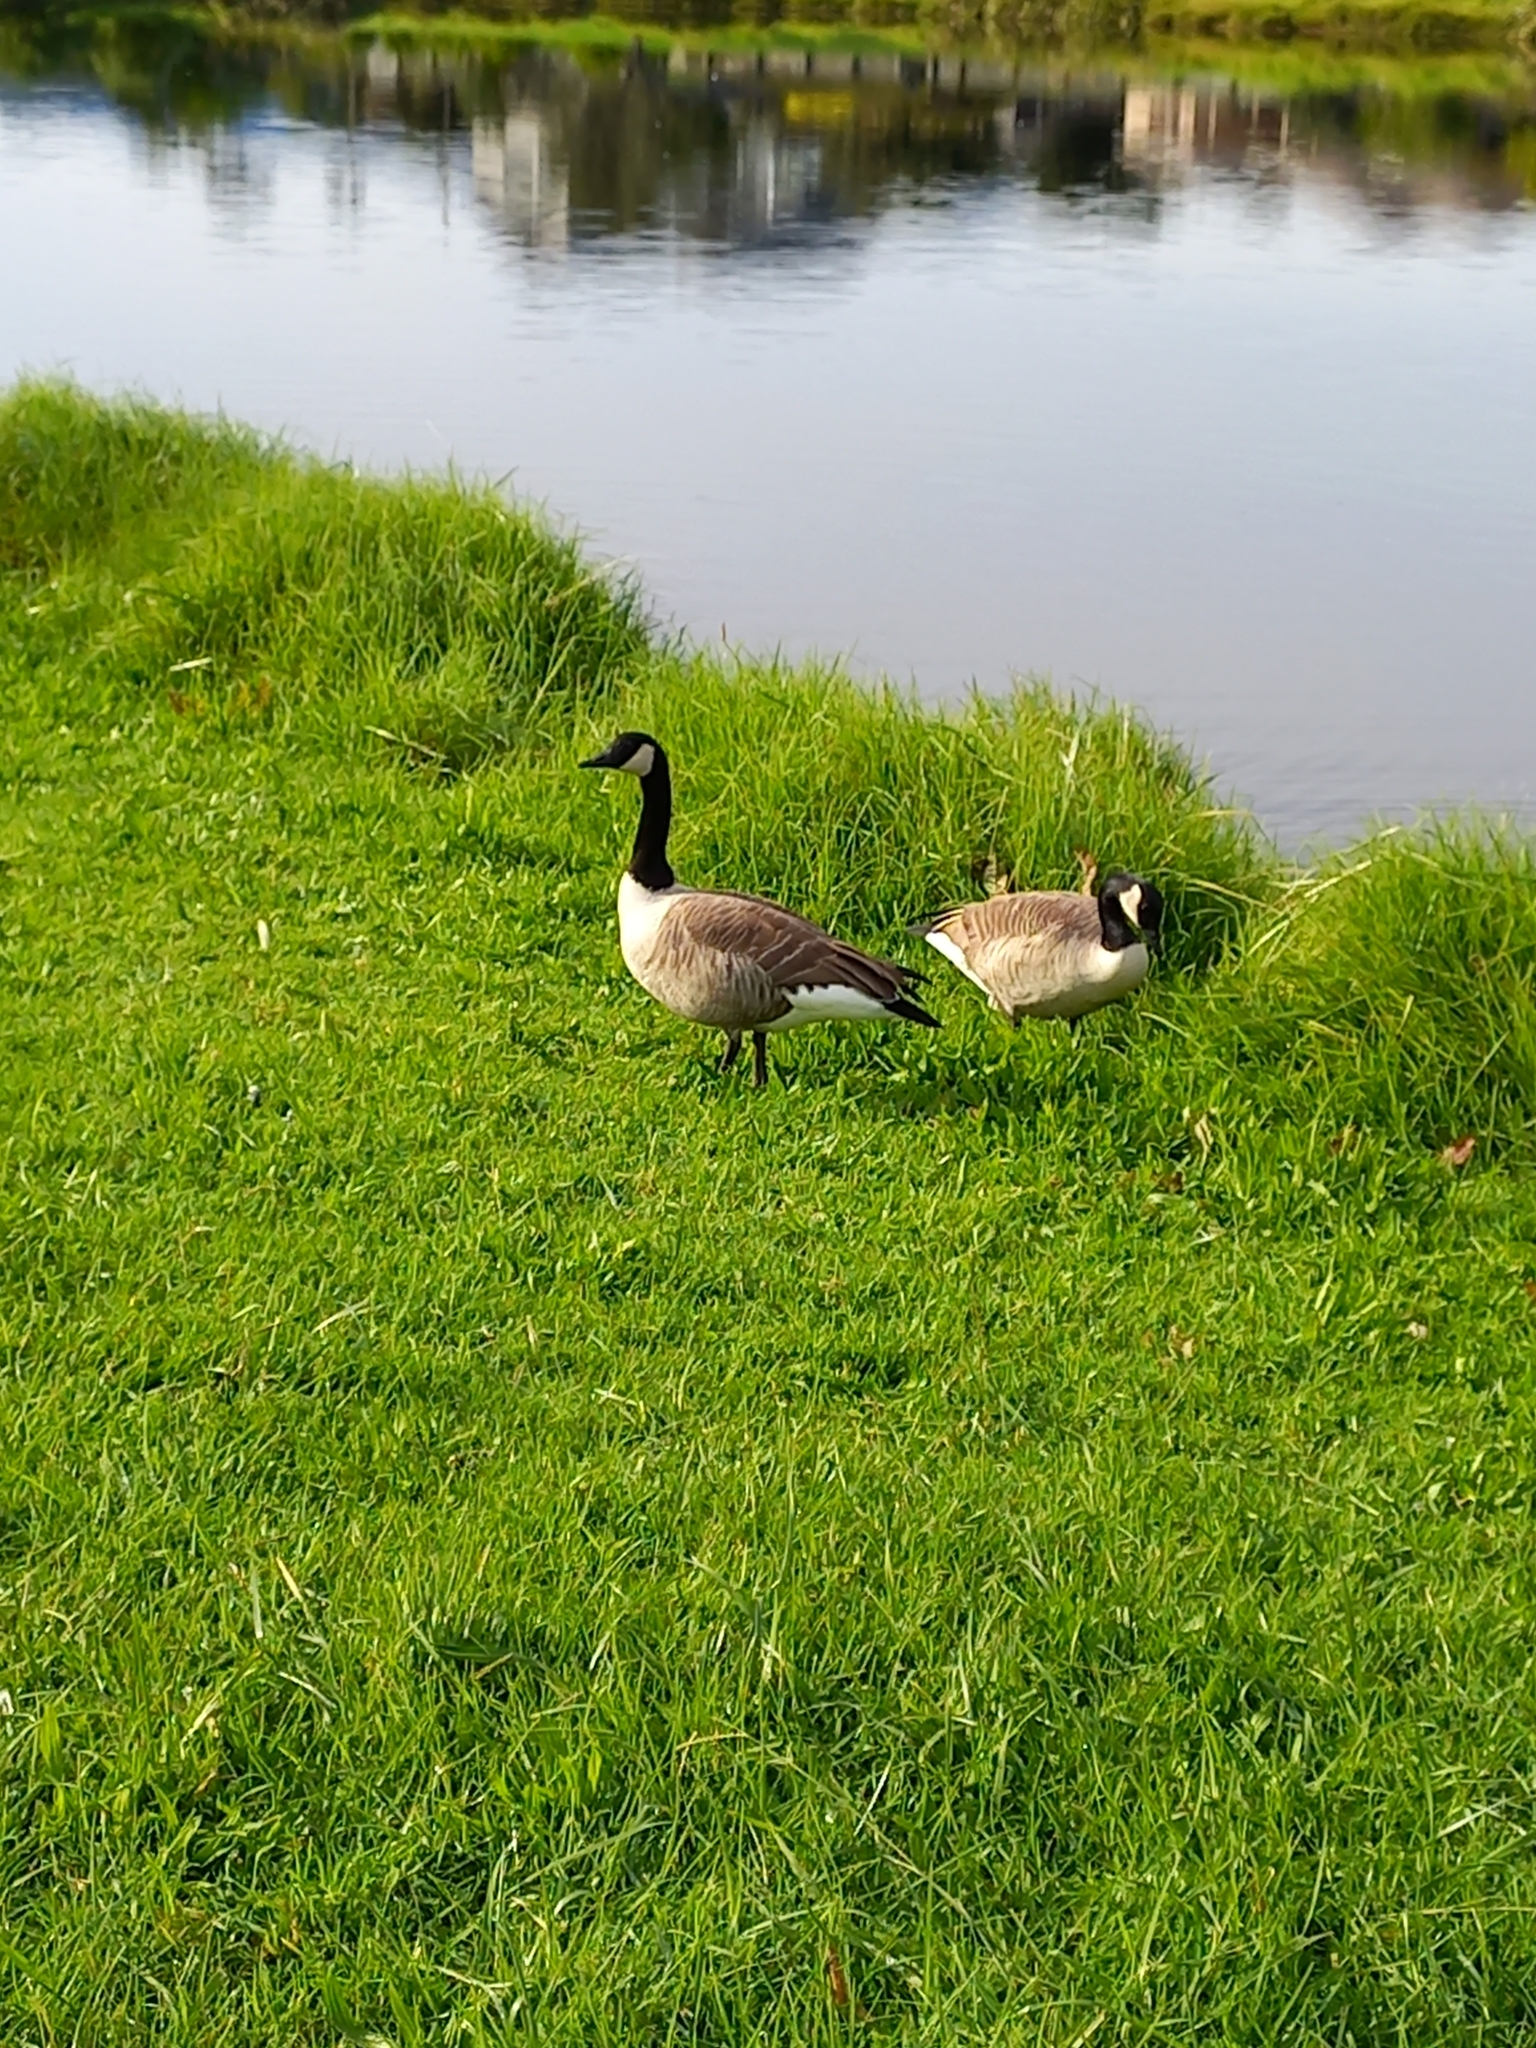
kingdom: Animalia
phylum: Chordata
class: Aves
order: Anseriformes
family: Anatidae
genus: Branta
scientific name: Branta canadensis
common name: Canada goose
